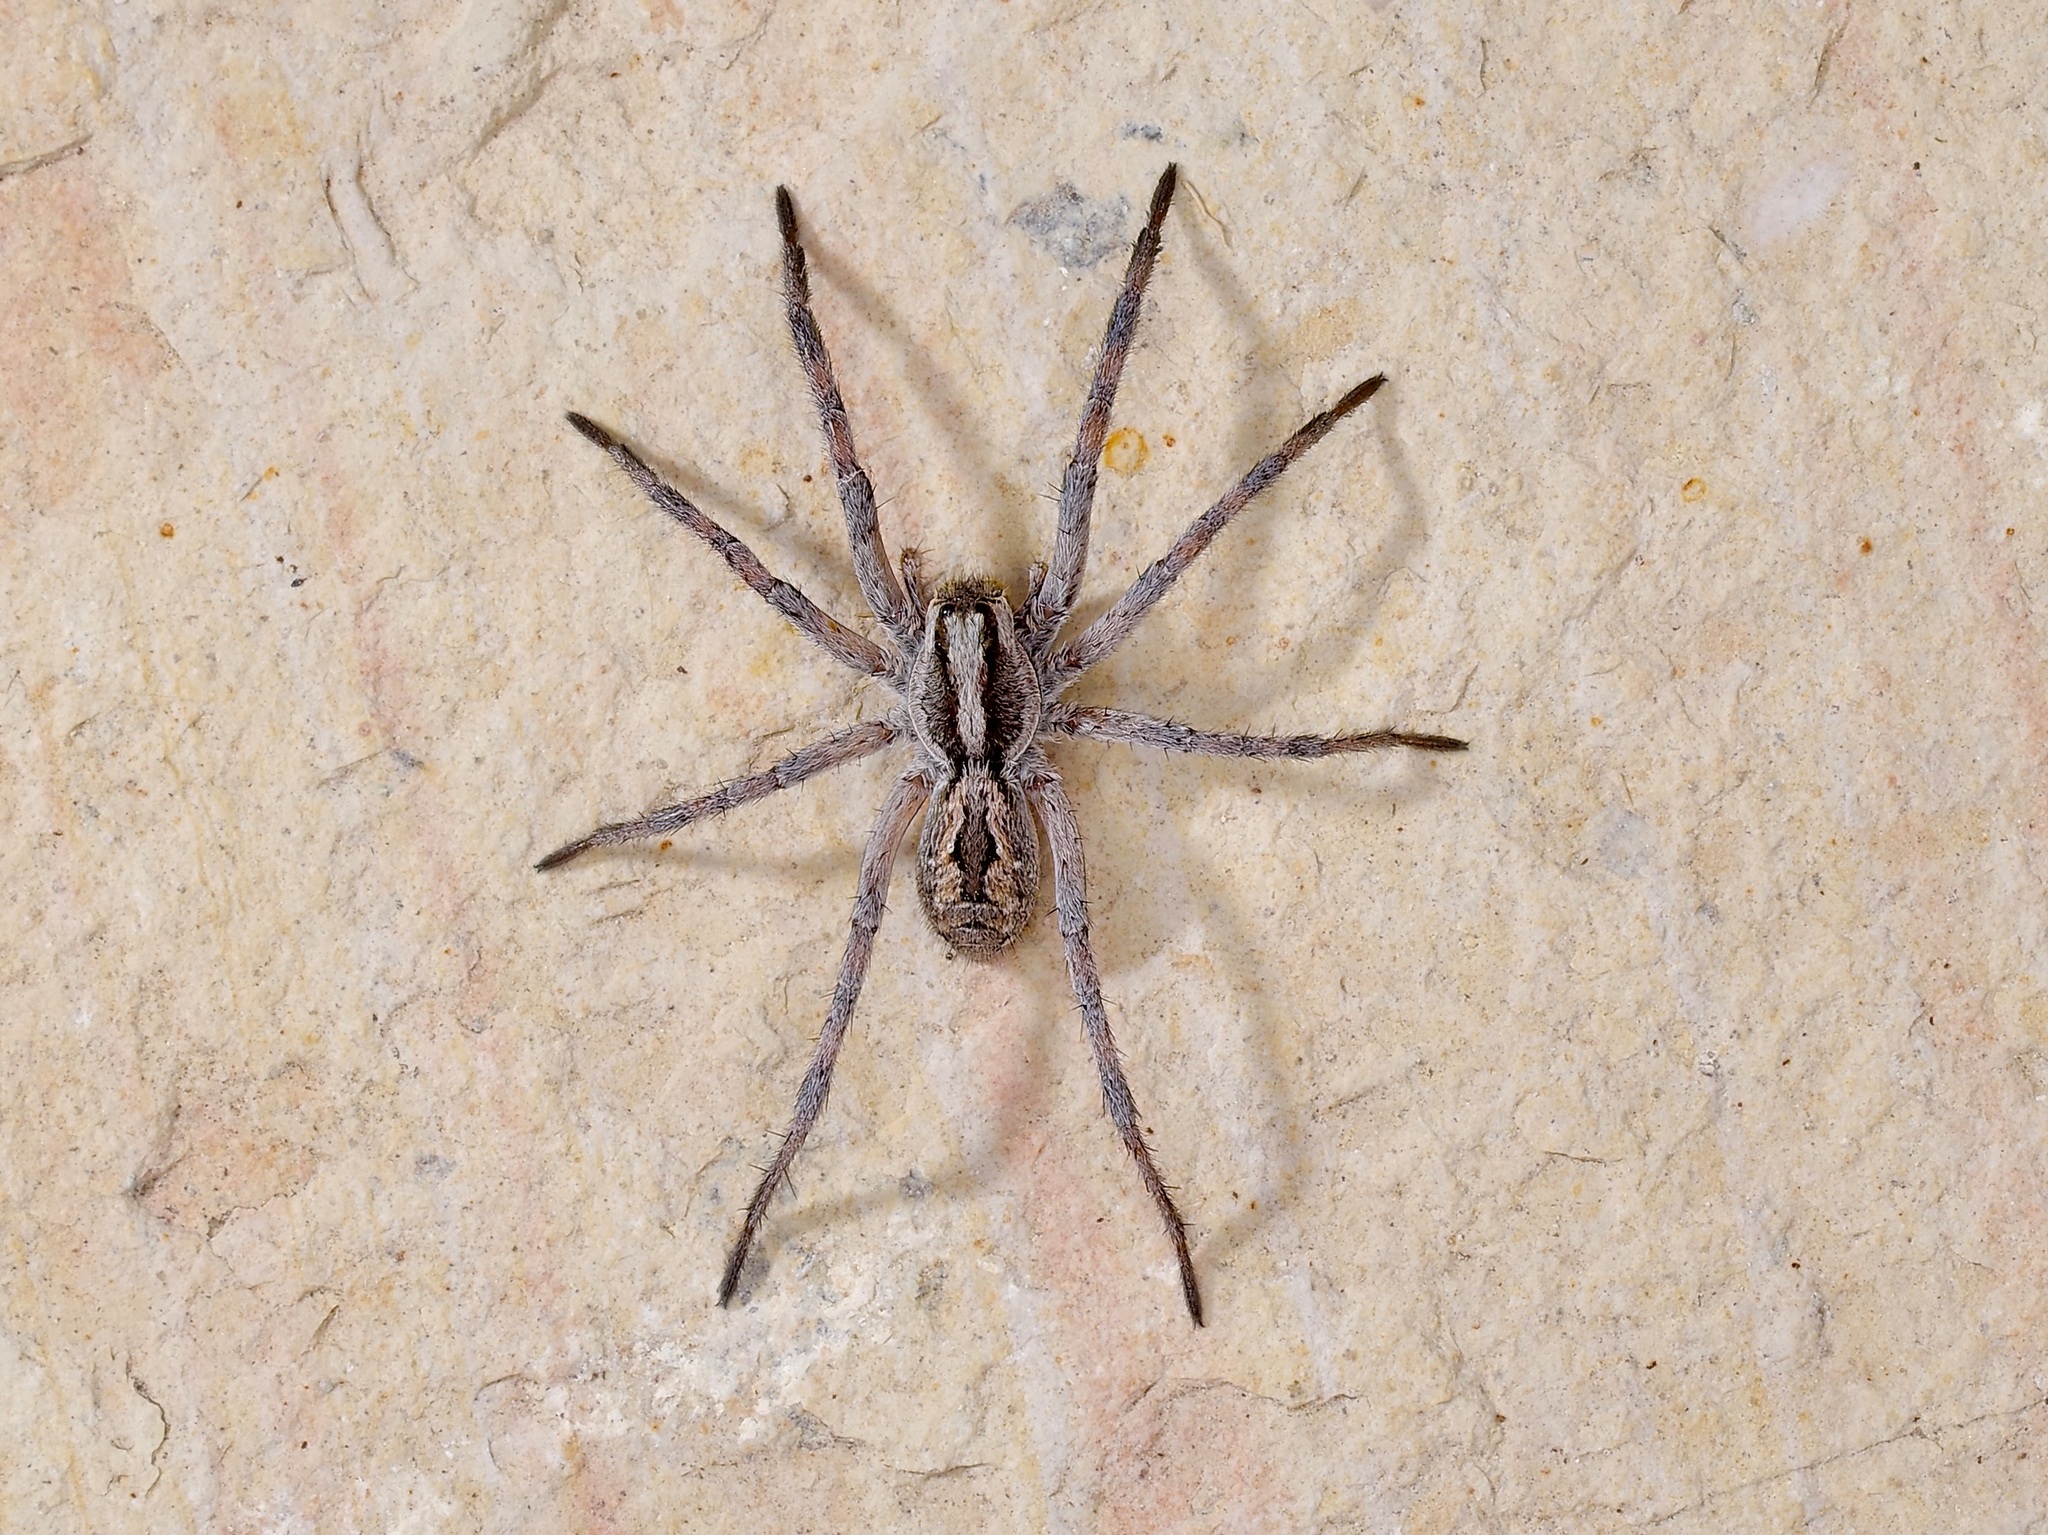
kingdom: Animalia
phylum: Arthropoda
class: Arachnida
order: Araneae
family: Lycosidae
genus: Hogna
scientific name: Hogna carolinensis
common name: Carolina wolf spider
